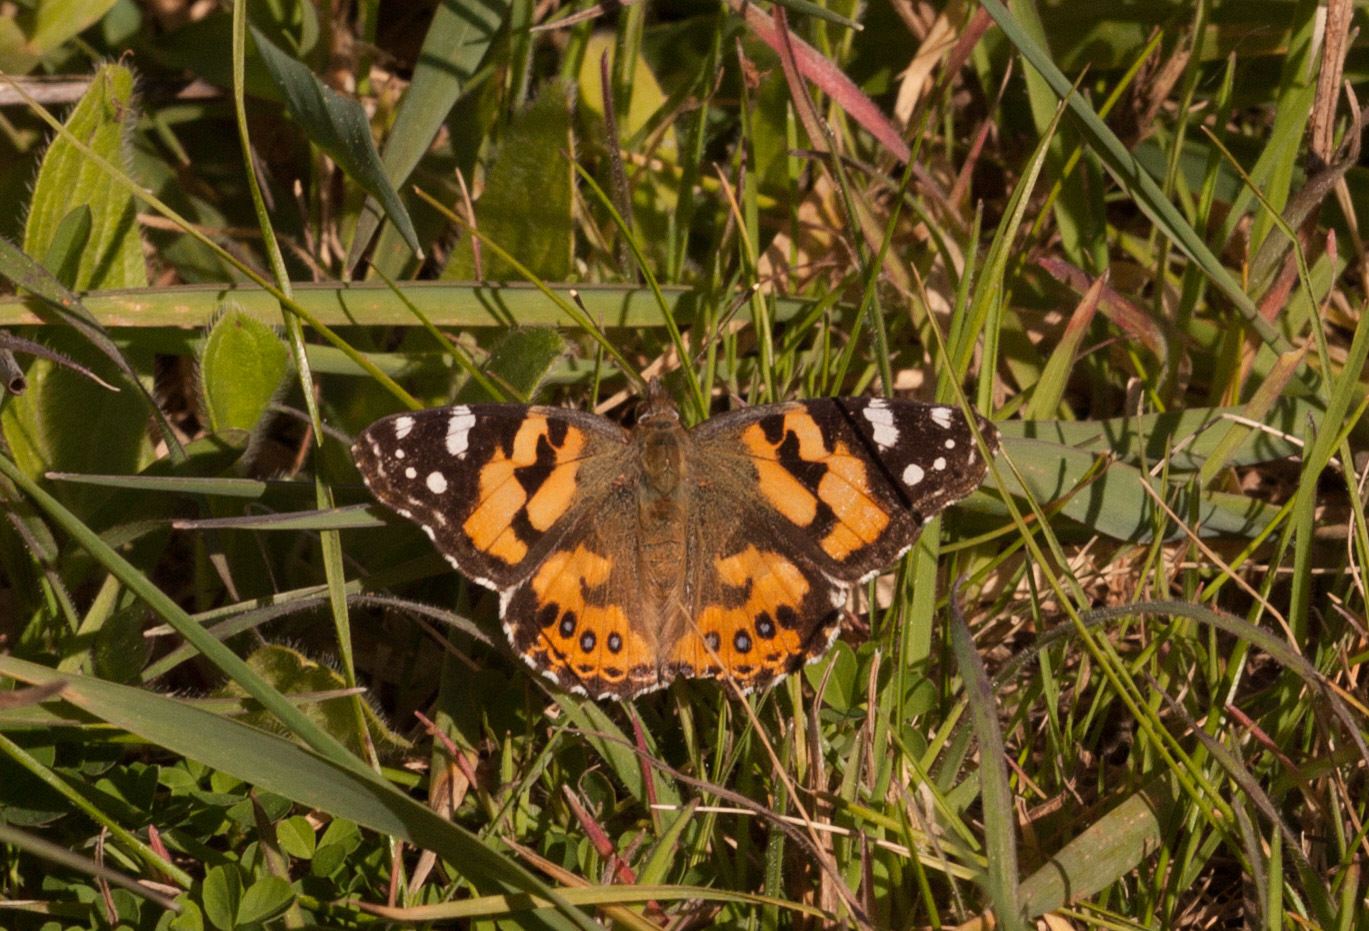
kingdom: Animalia
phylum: Arthropoda
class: Insecta
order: Lepidoptera
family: Nymphalidae
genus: Vanessa
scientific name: Vanessa kershawi
